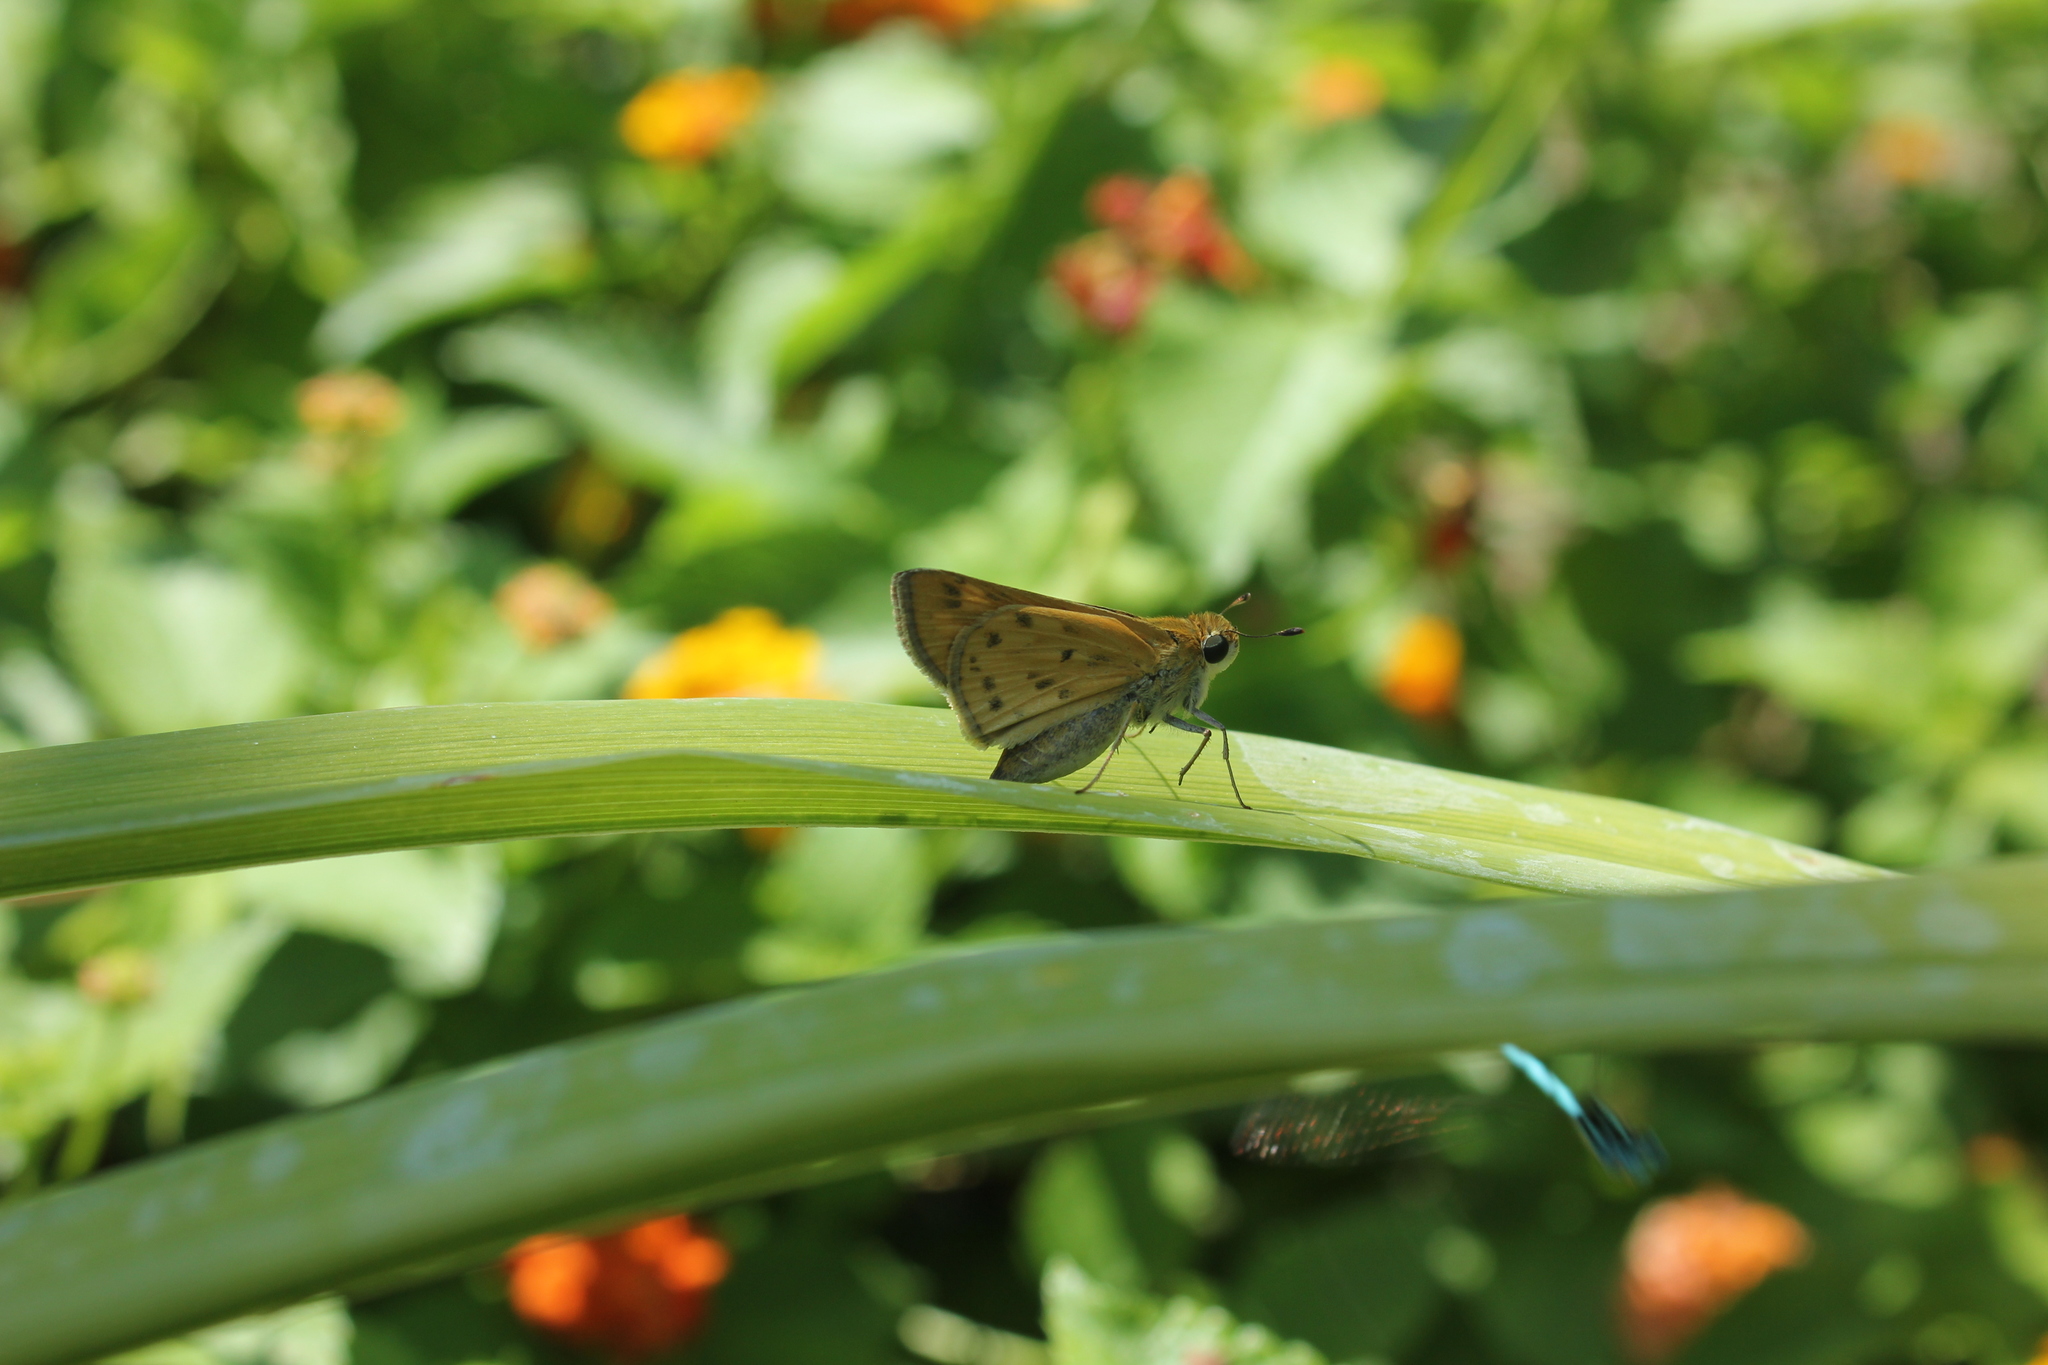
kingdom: Animalia
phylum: Arthropoda
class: Insecta
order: Lepidoptera
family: Hesperiidae
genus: Hylephila
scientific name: Hylephila phyleus
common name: Fiery skipper
